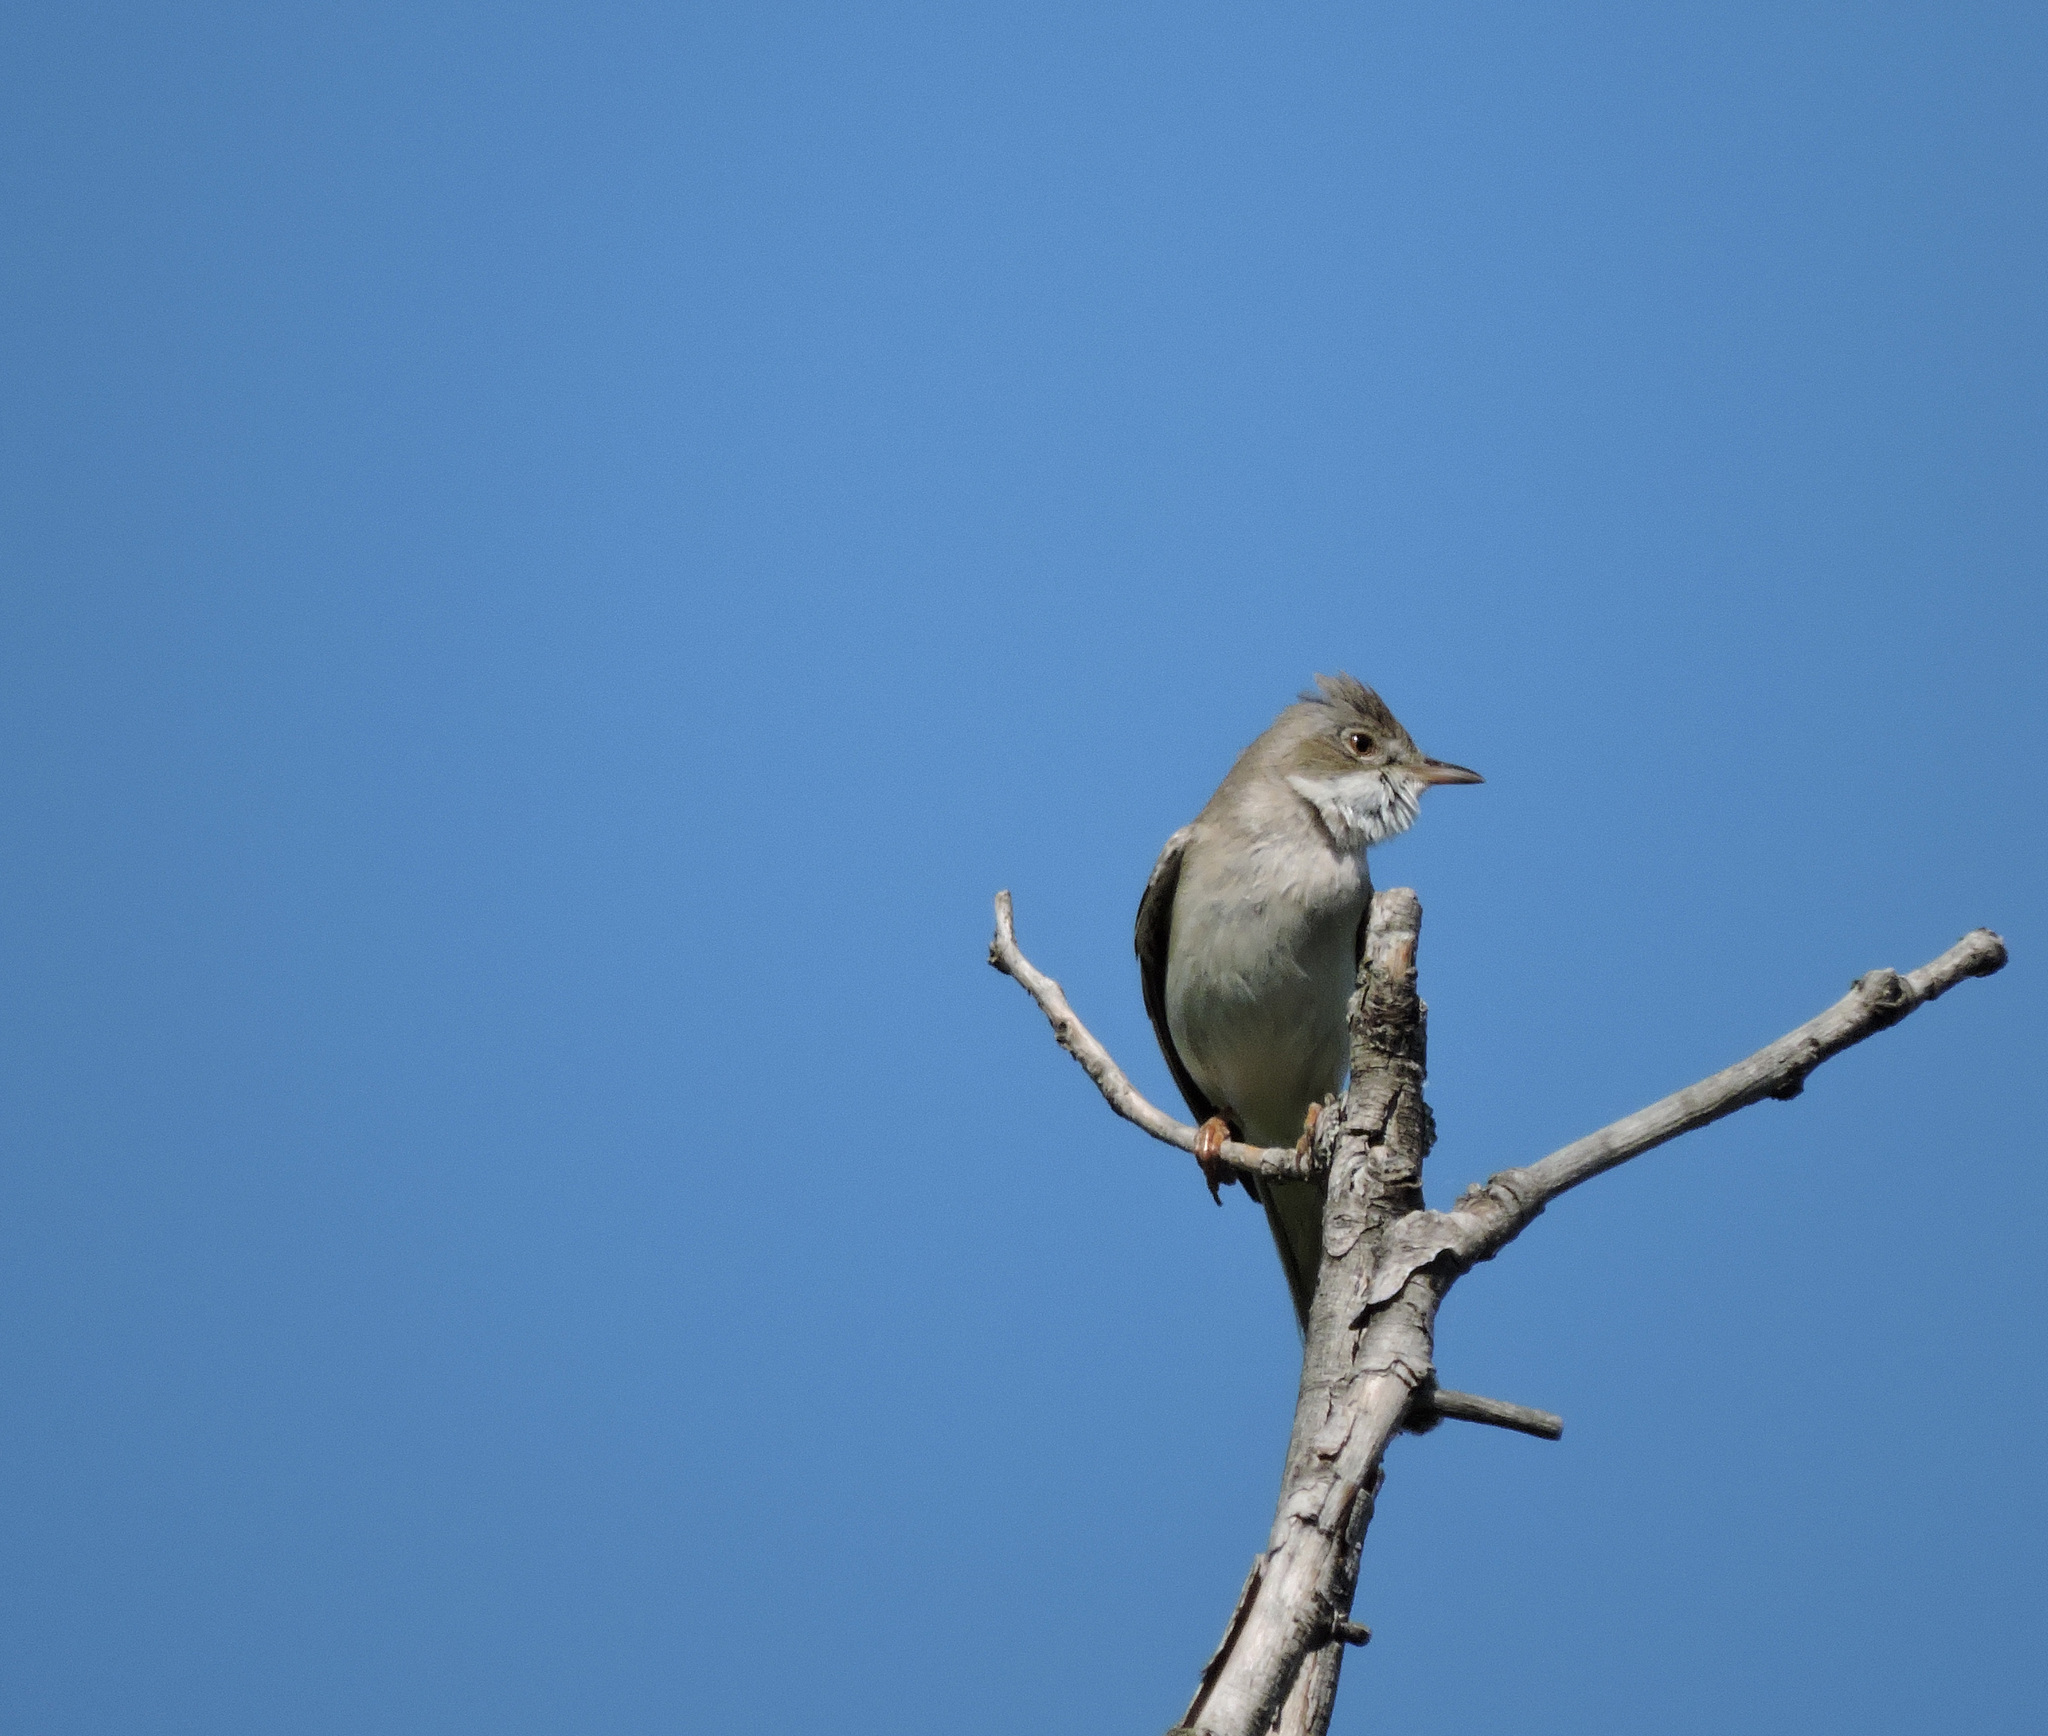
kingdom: Animalia
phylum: Chordata
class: Aves
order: Passeriformes
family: Sylviidae
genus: Sylvia
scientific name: Sylvia communis
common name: Common whitethroat
